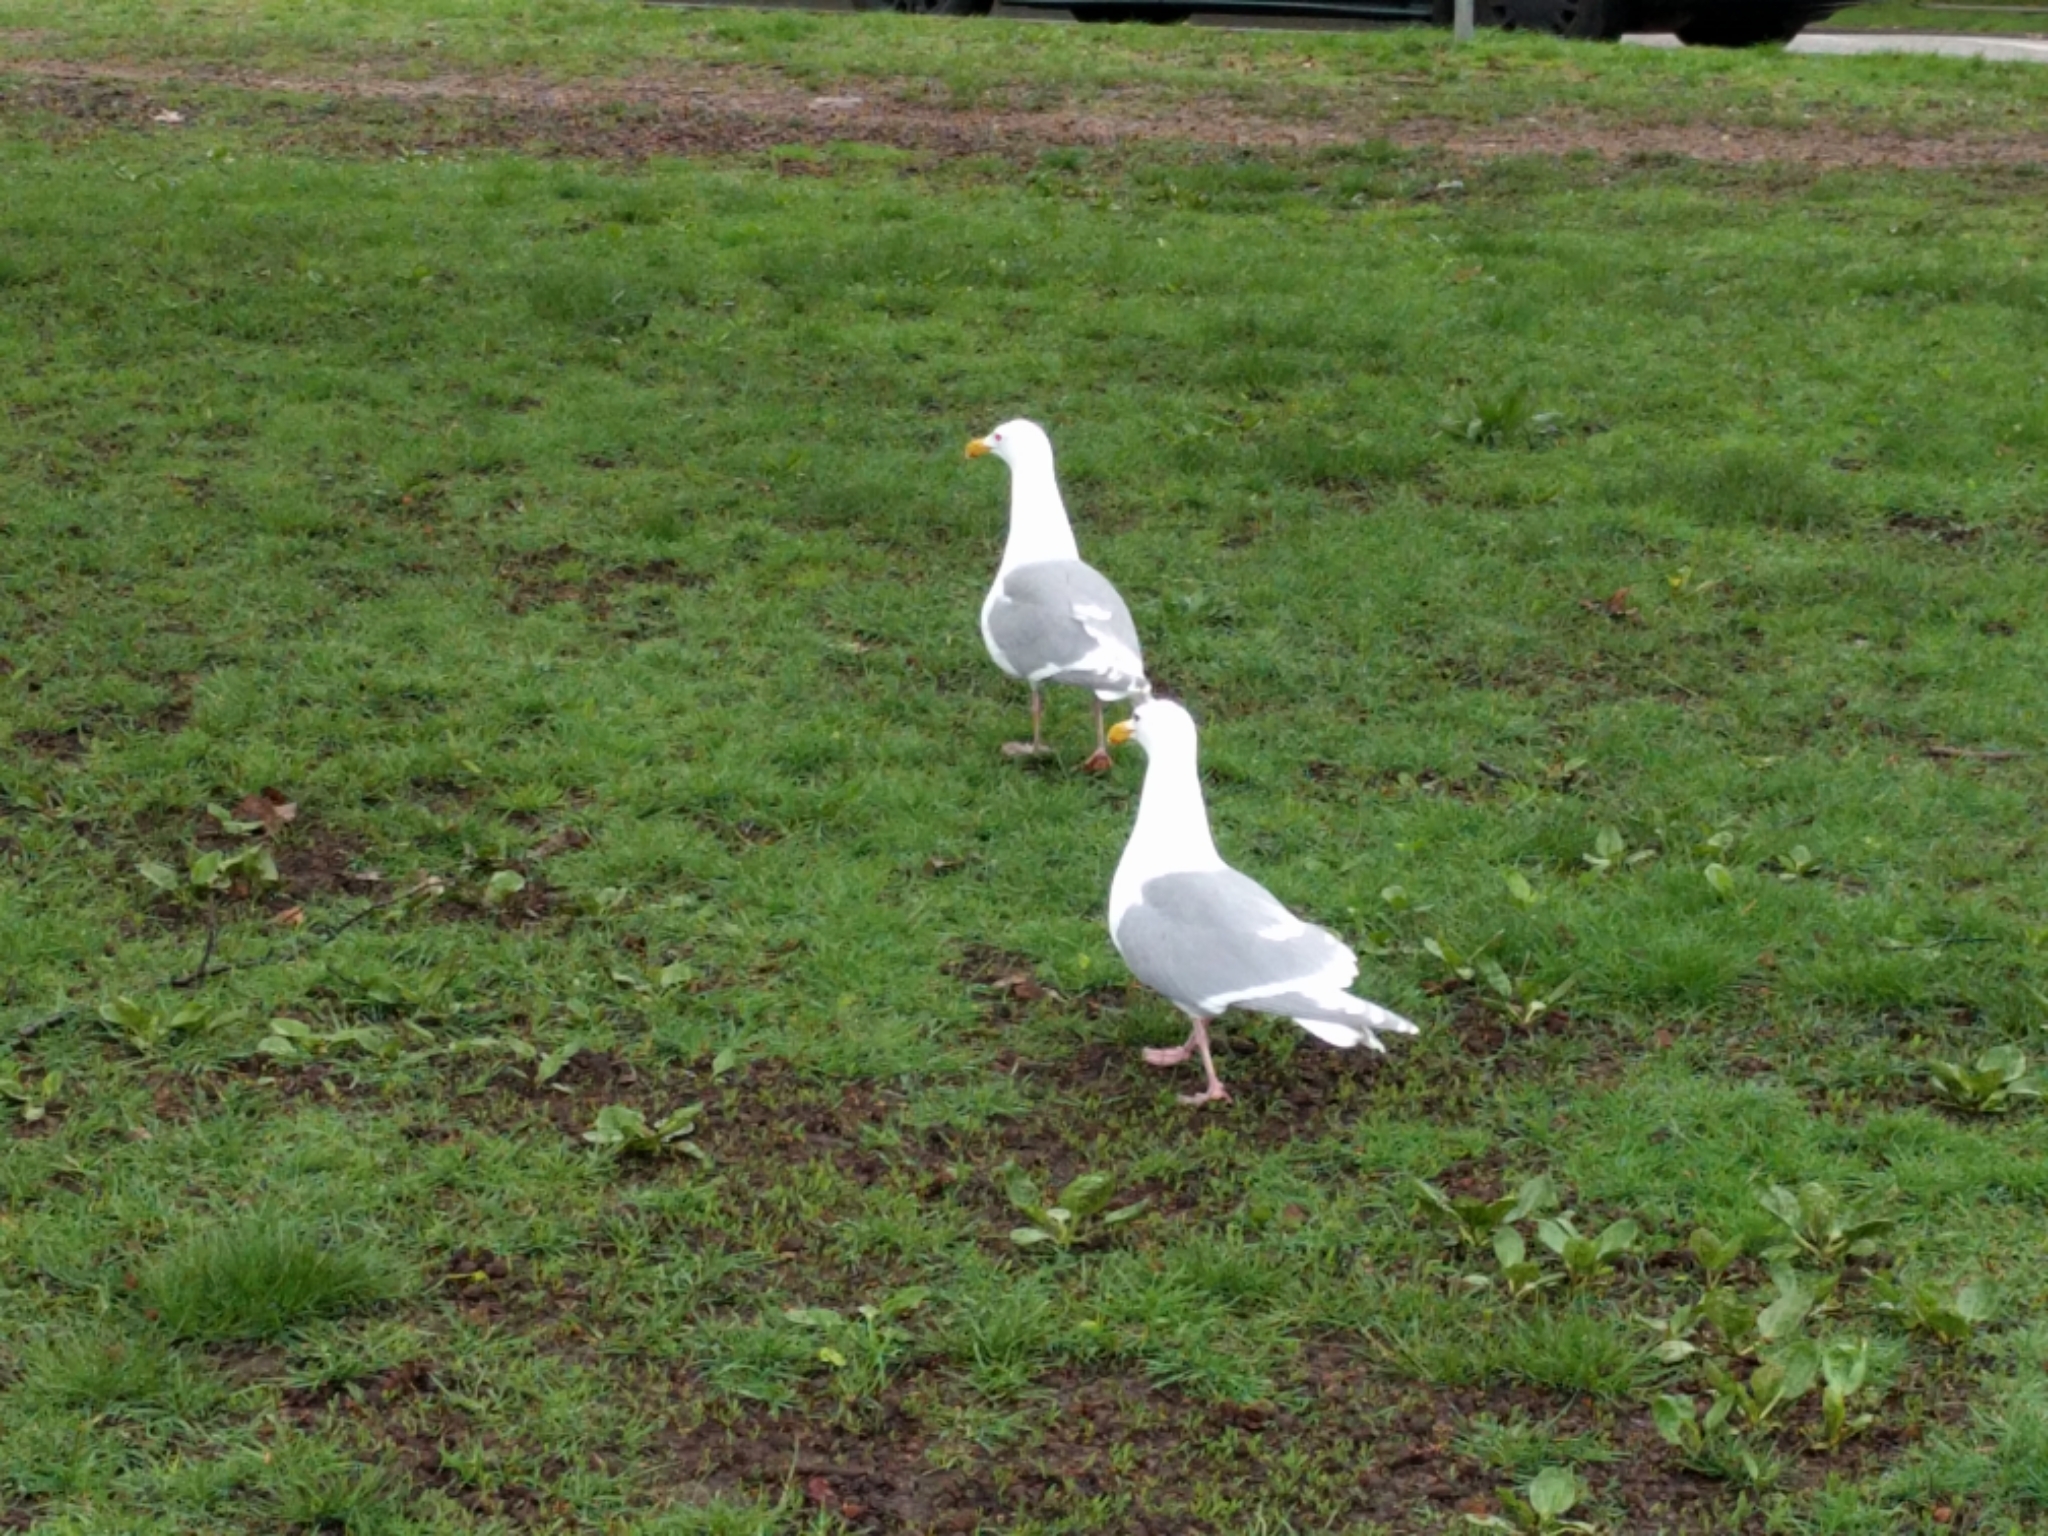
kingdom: Animalia
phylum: Chordata
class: Aves
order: Charadriiformes
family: Laridae
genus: Larus
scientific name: Larus glaucescens
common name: Glaucous-winged gull
